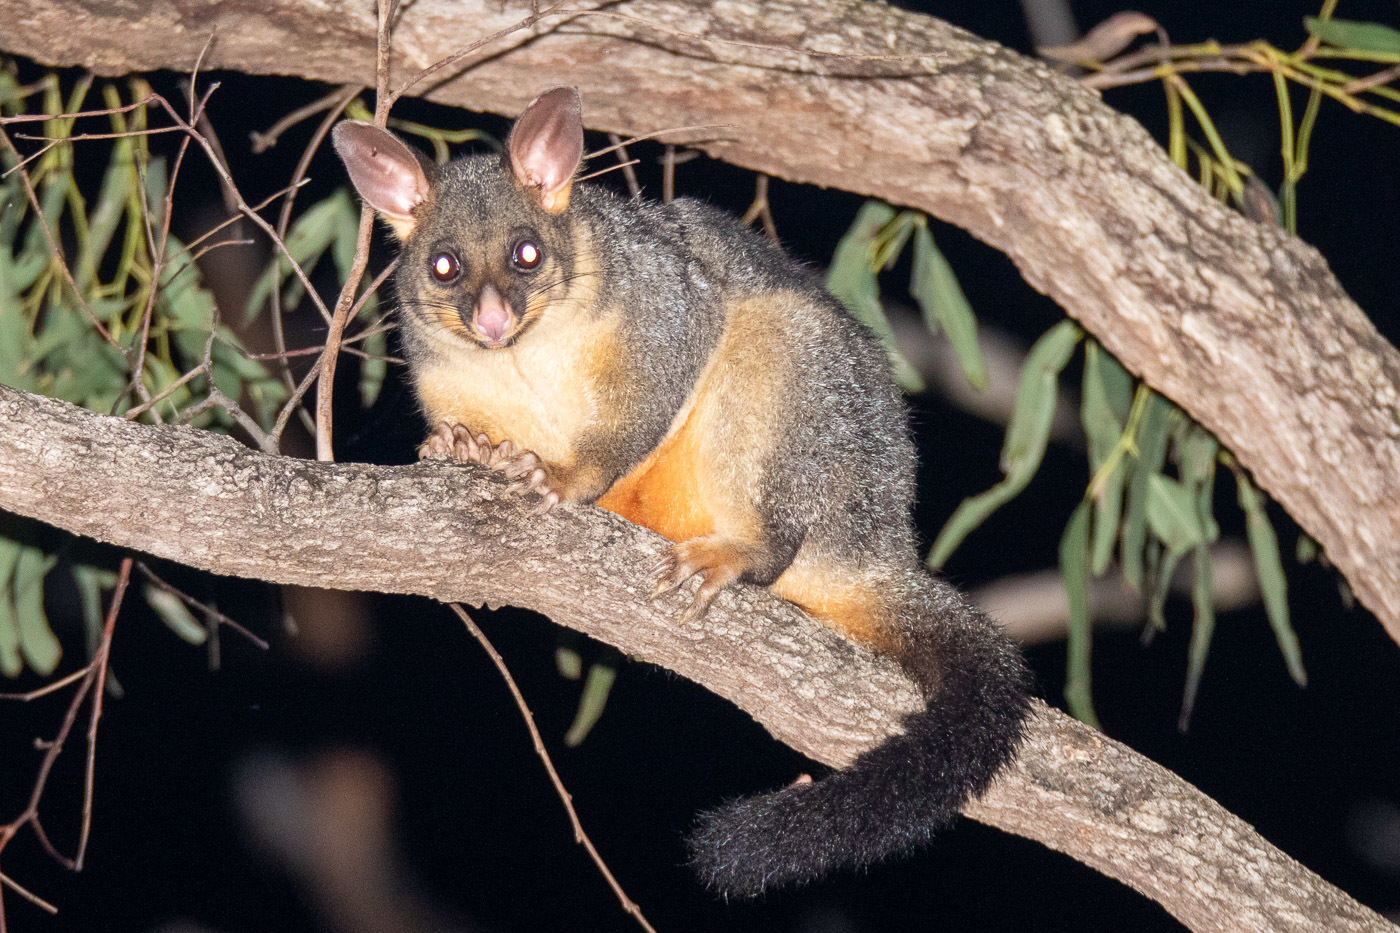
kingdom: Animalia
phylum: Chordata
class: Mammalia
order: Diprotodontia
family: Phalangeridae
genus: Trichosurus
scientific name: Trichosurus vulpecula
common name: Common brushtail
